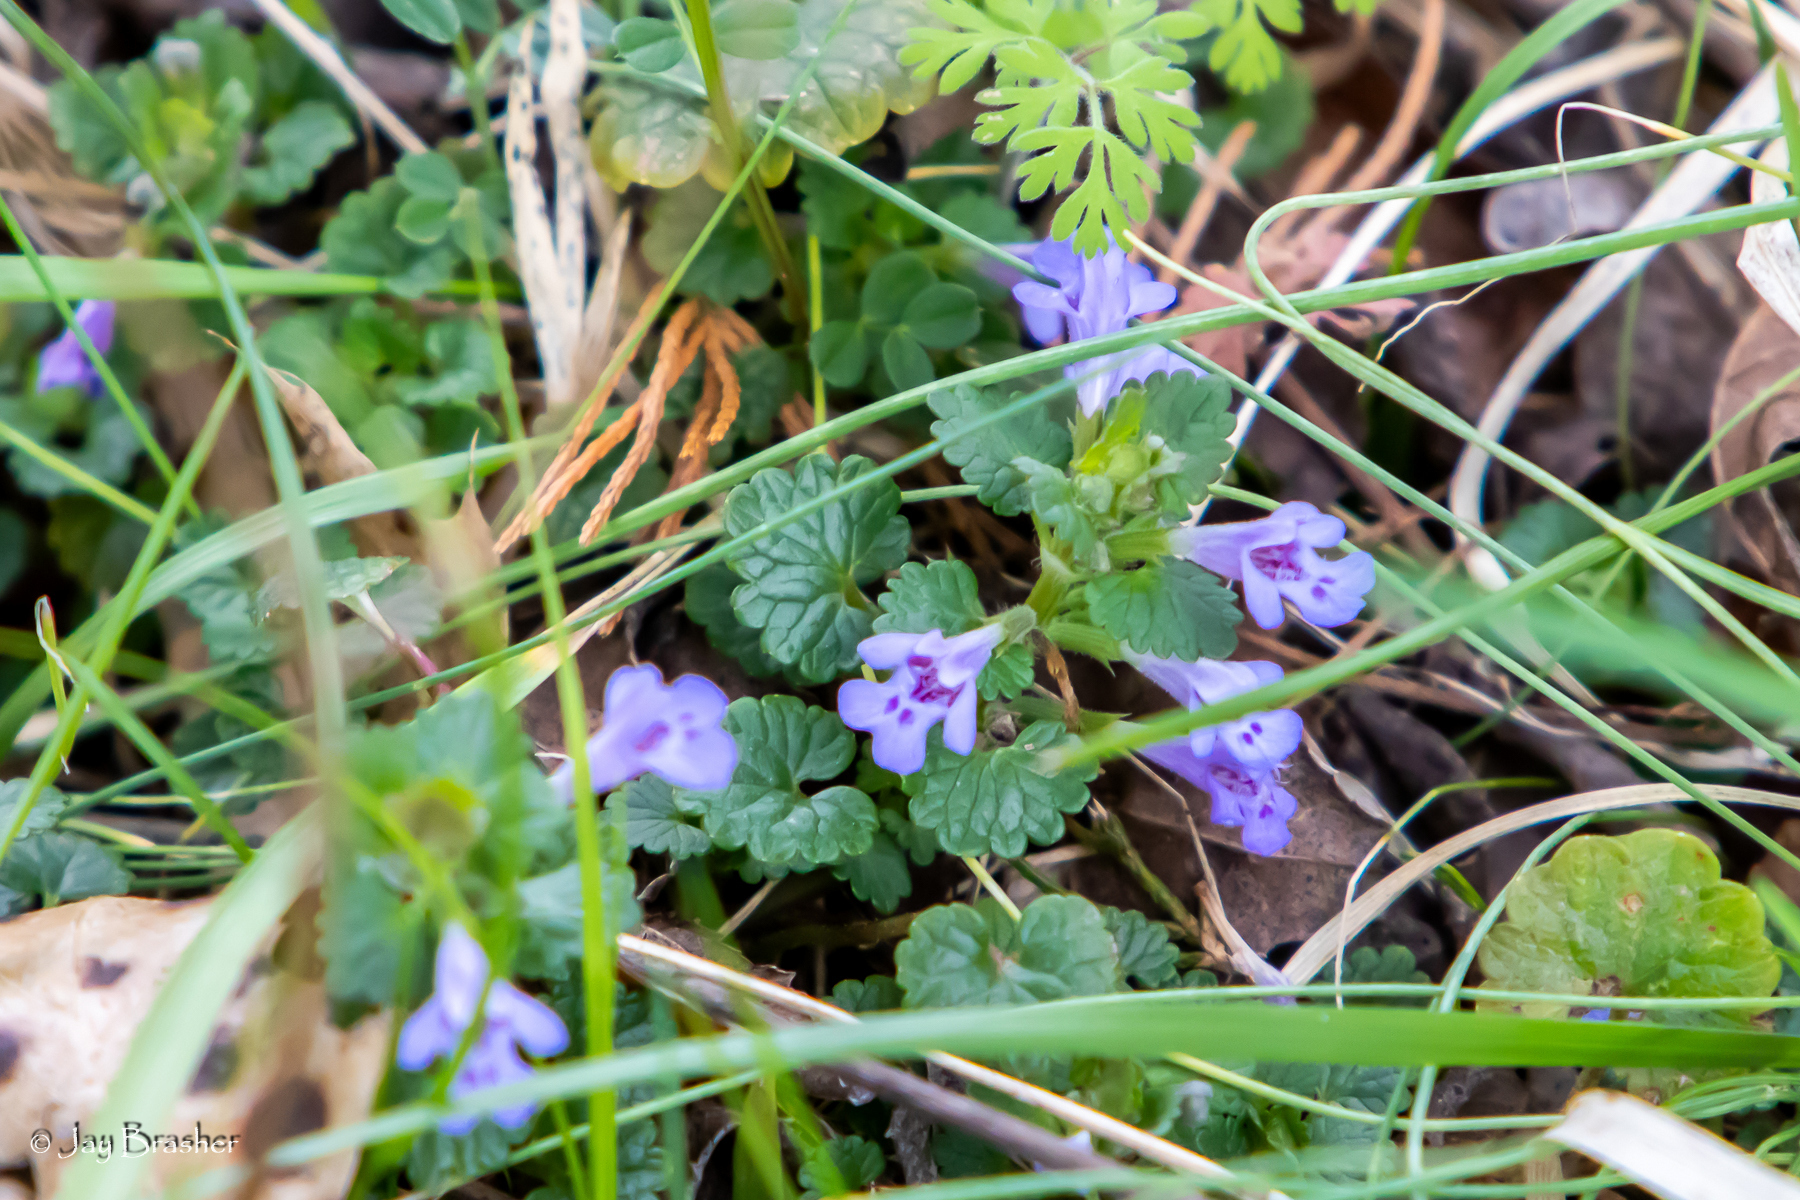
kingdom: Plantae
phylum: Tracheophyta
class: Magnoliopsida
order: Lamiales
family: Lamiaceae
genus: Glechoma
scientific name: Glechoma hederacea
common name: Ground ivy
